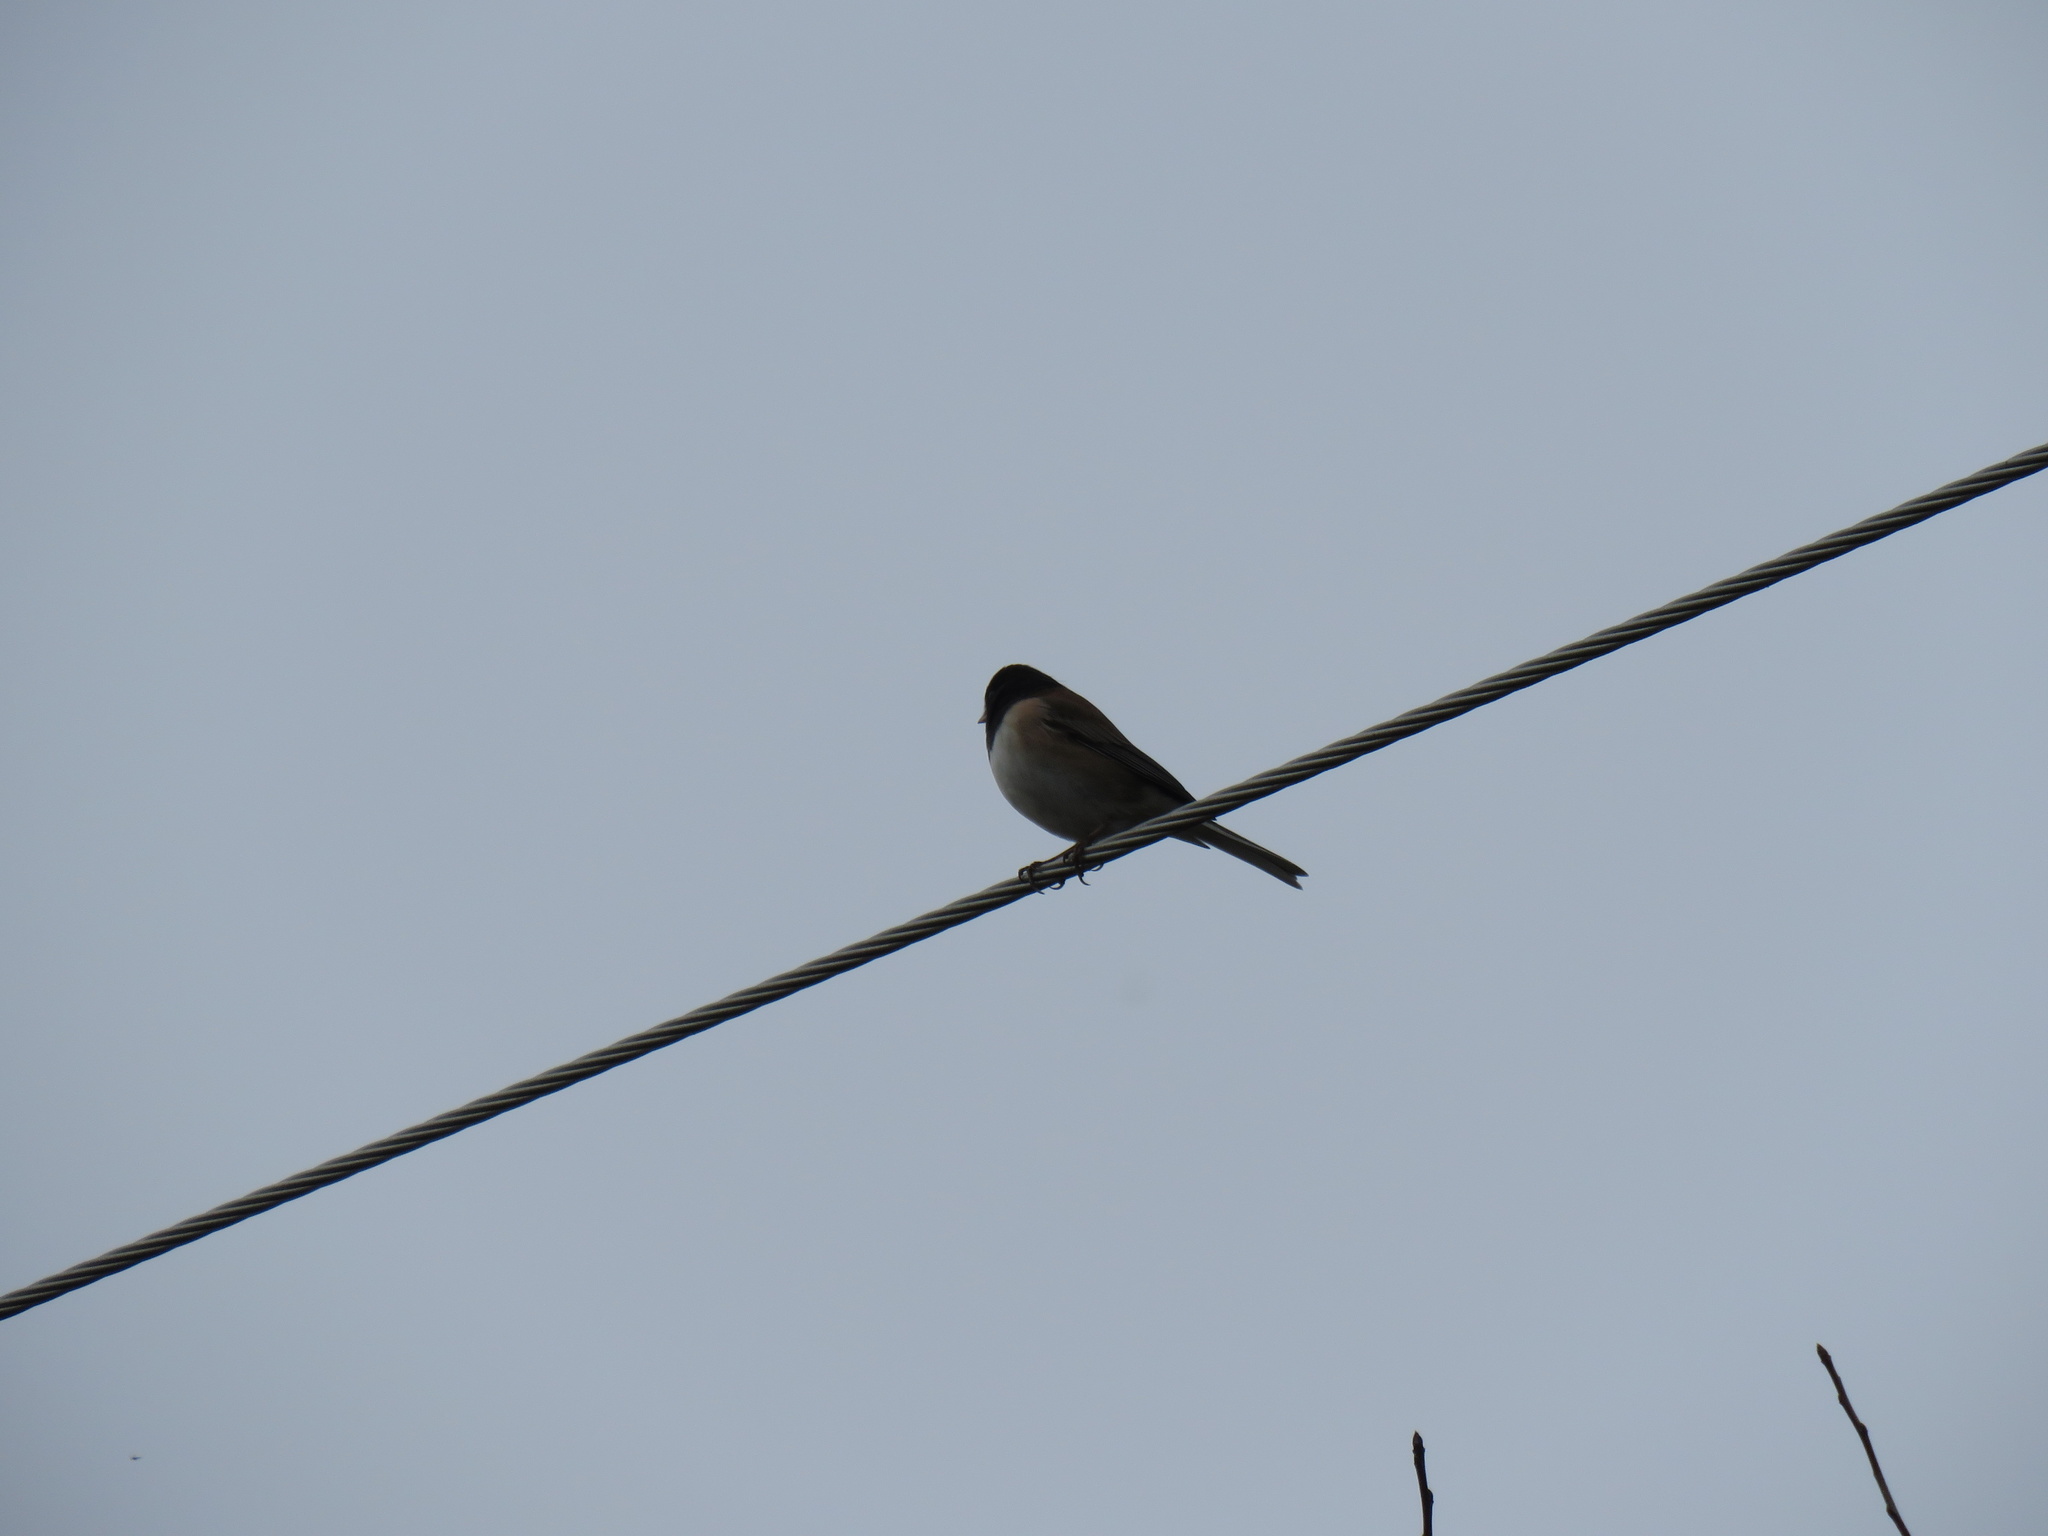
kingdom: Animalia
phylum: Chordata
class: Aves
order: Passeriformes
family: Passerellidae
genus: Junco
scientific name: Junco hyemalis
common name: Dark-eyed junco
